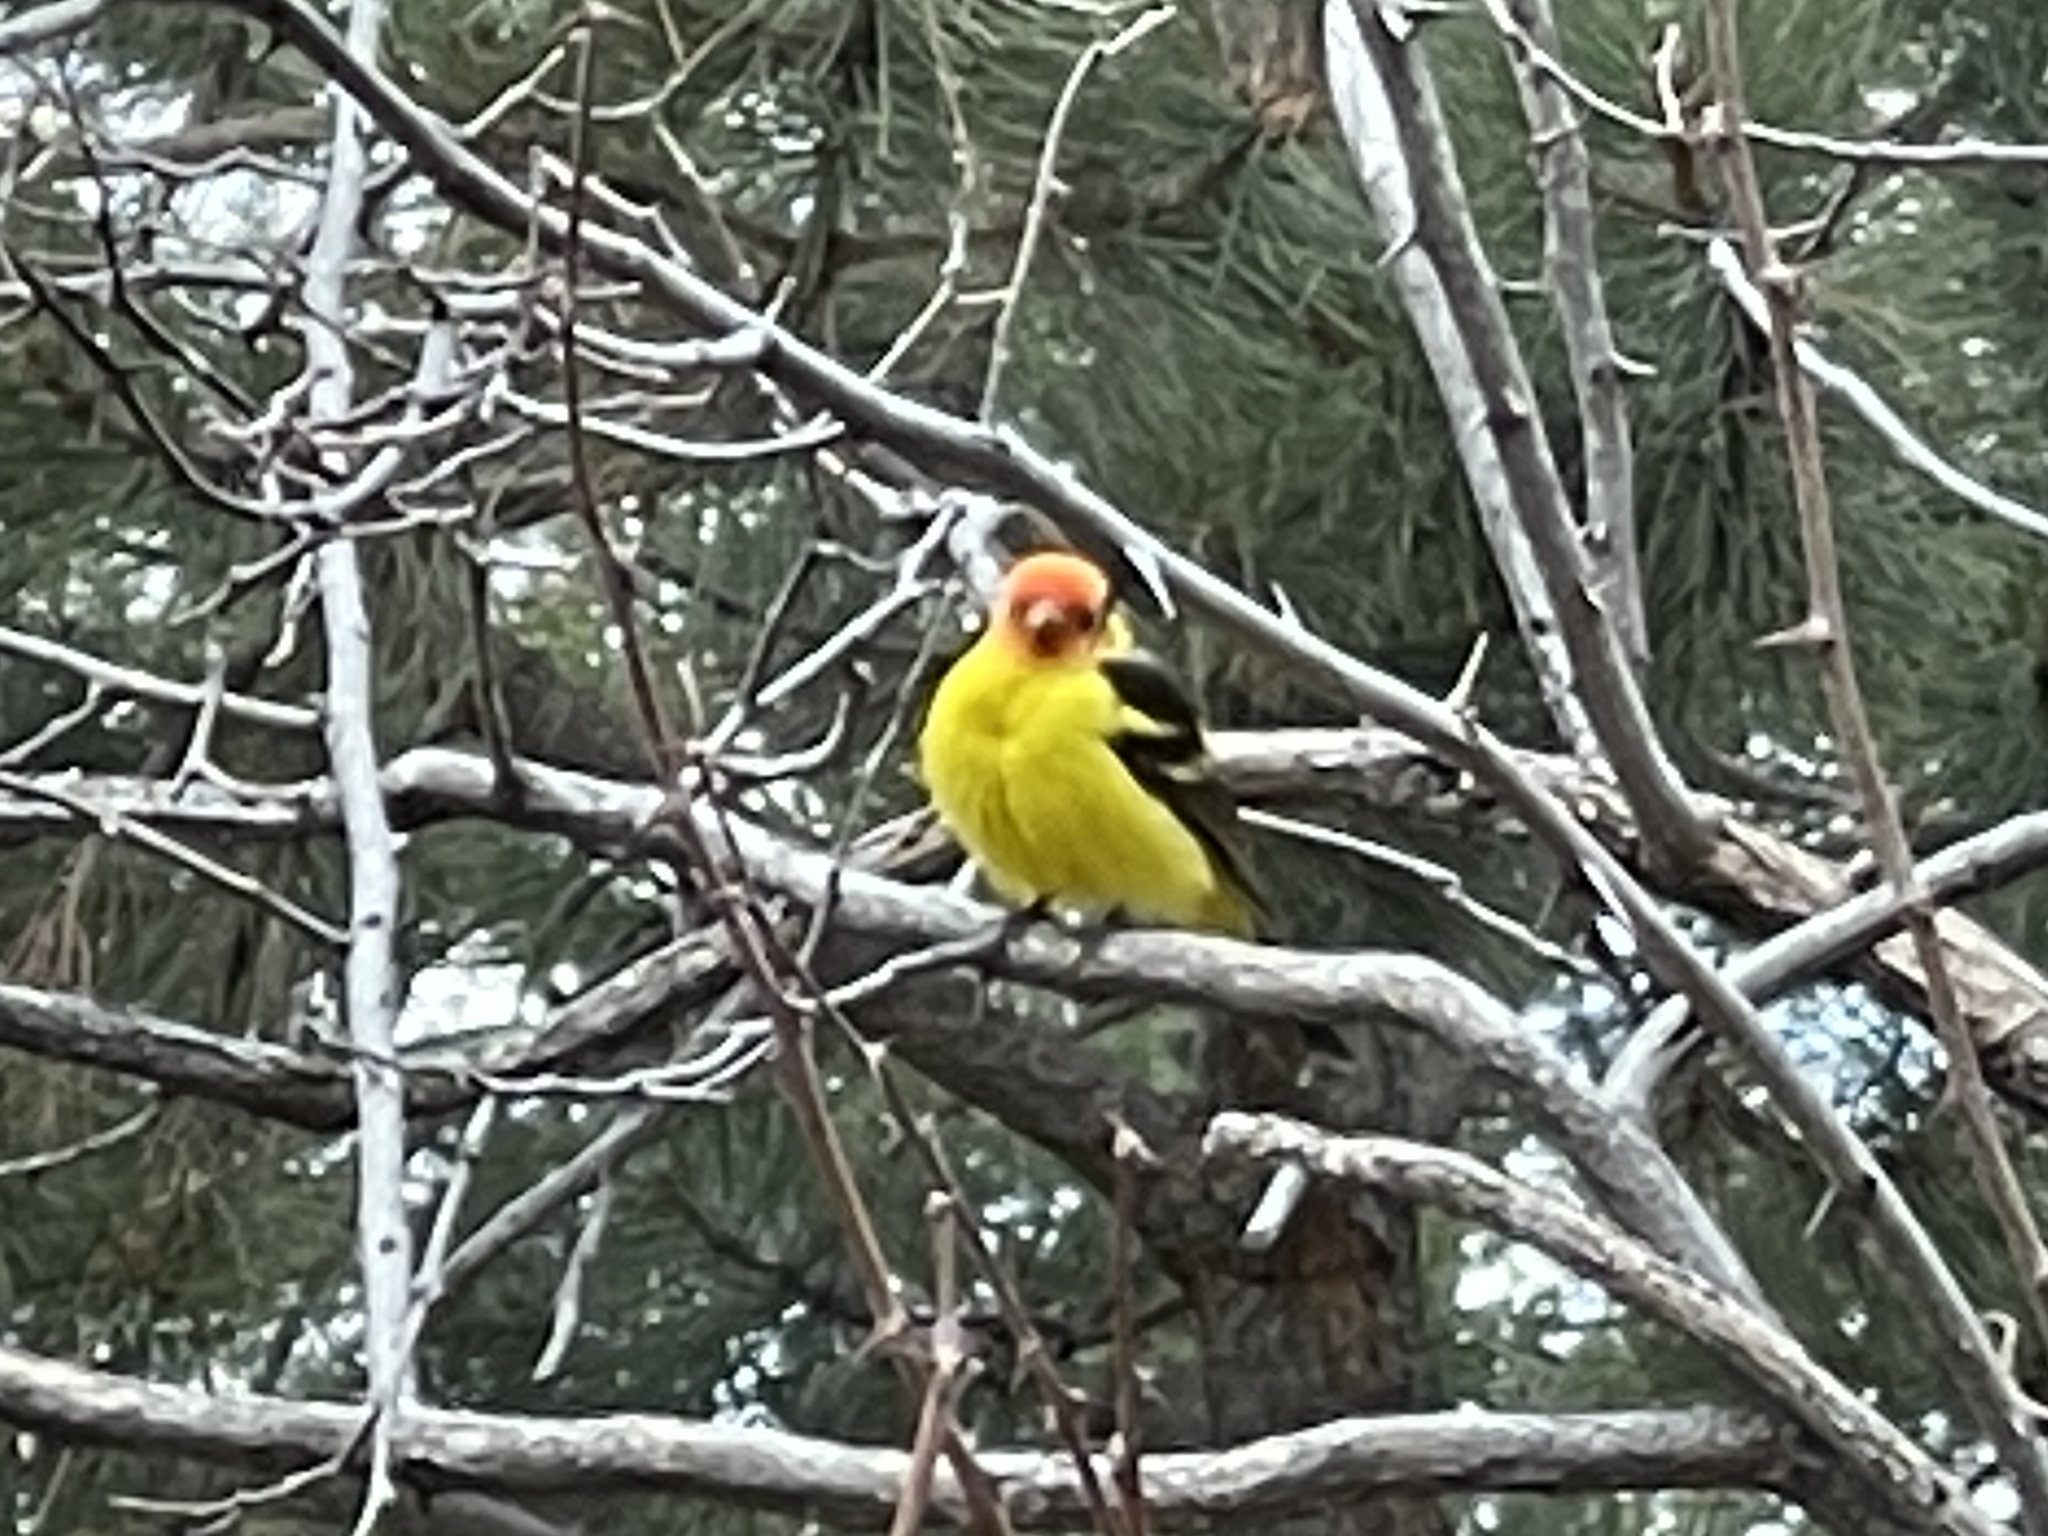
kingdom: Animalia
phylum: Chordata
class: Aves
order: Passeriformes
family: Cardinalidae
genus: Piranga
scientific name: Piranga ludoviciana
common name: Western tanager
